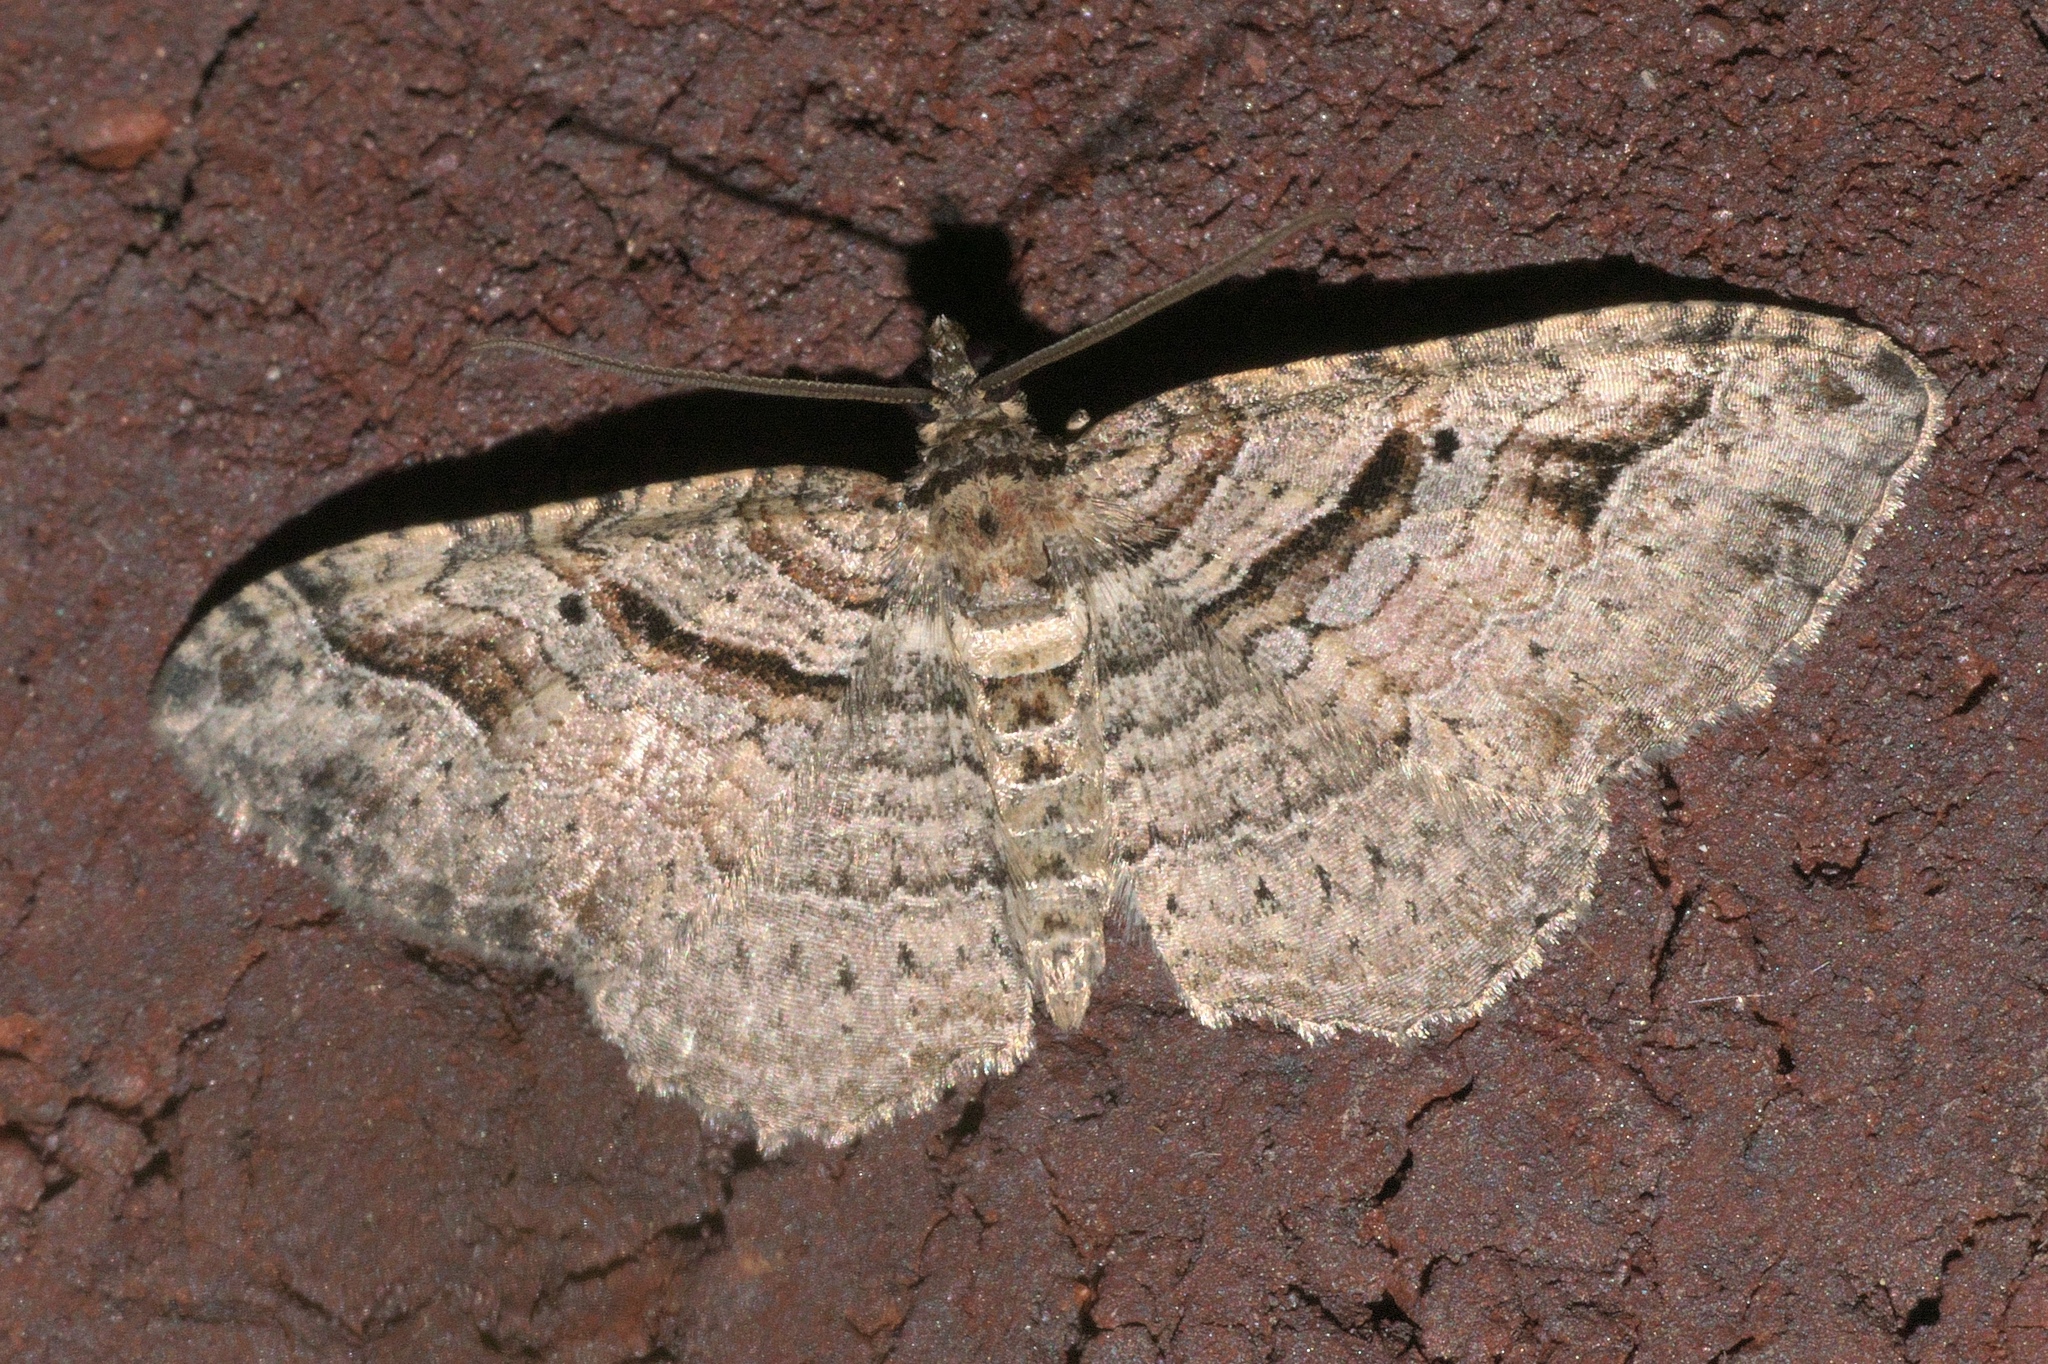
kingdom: Animalia
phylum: Arthropoda
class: Insecta
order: Lepidoptera
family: Geometridae
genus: Costaconvexa
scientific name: Costaconvexa centrostrigaria
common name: Bent-line carpet
